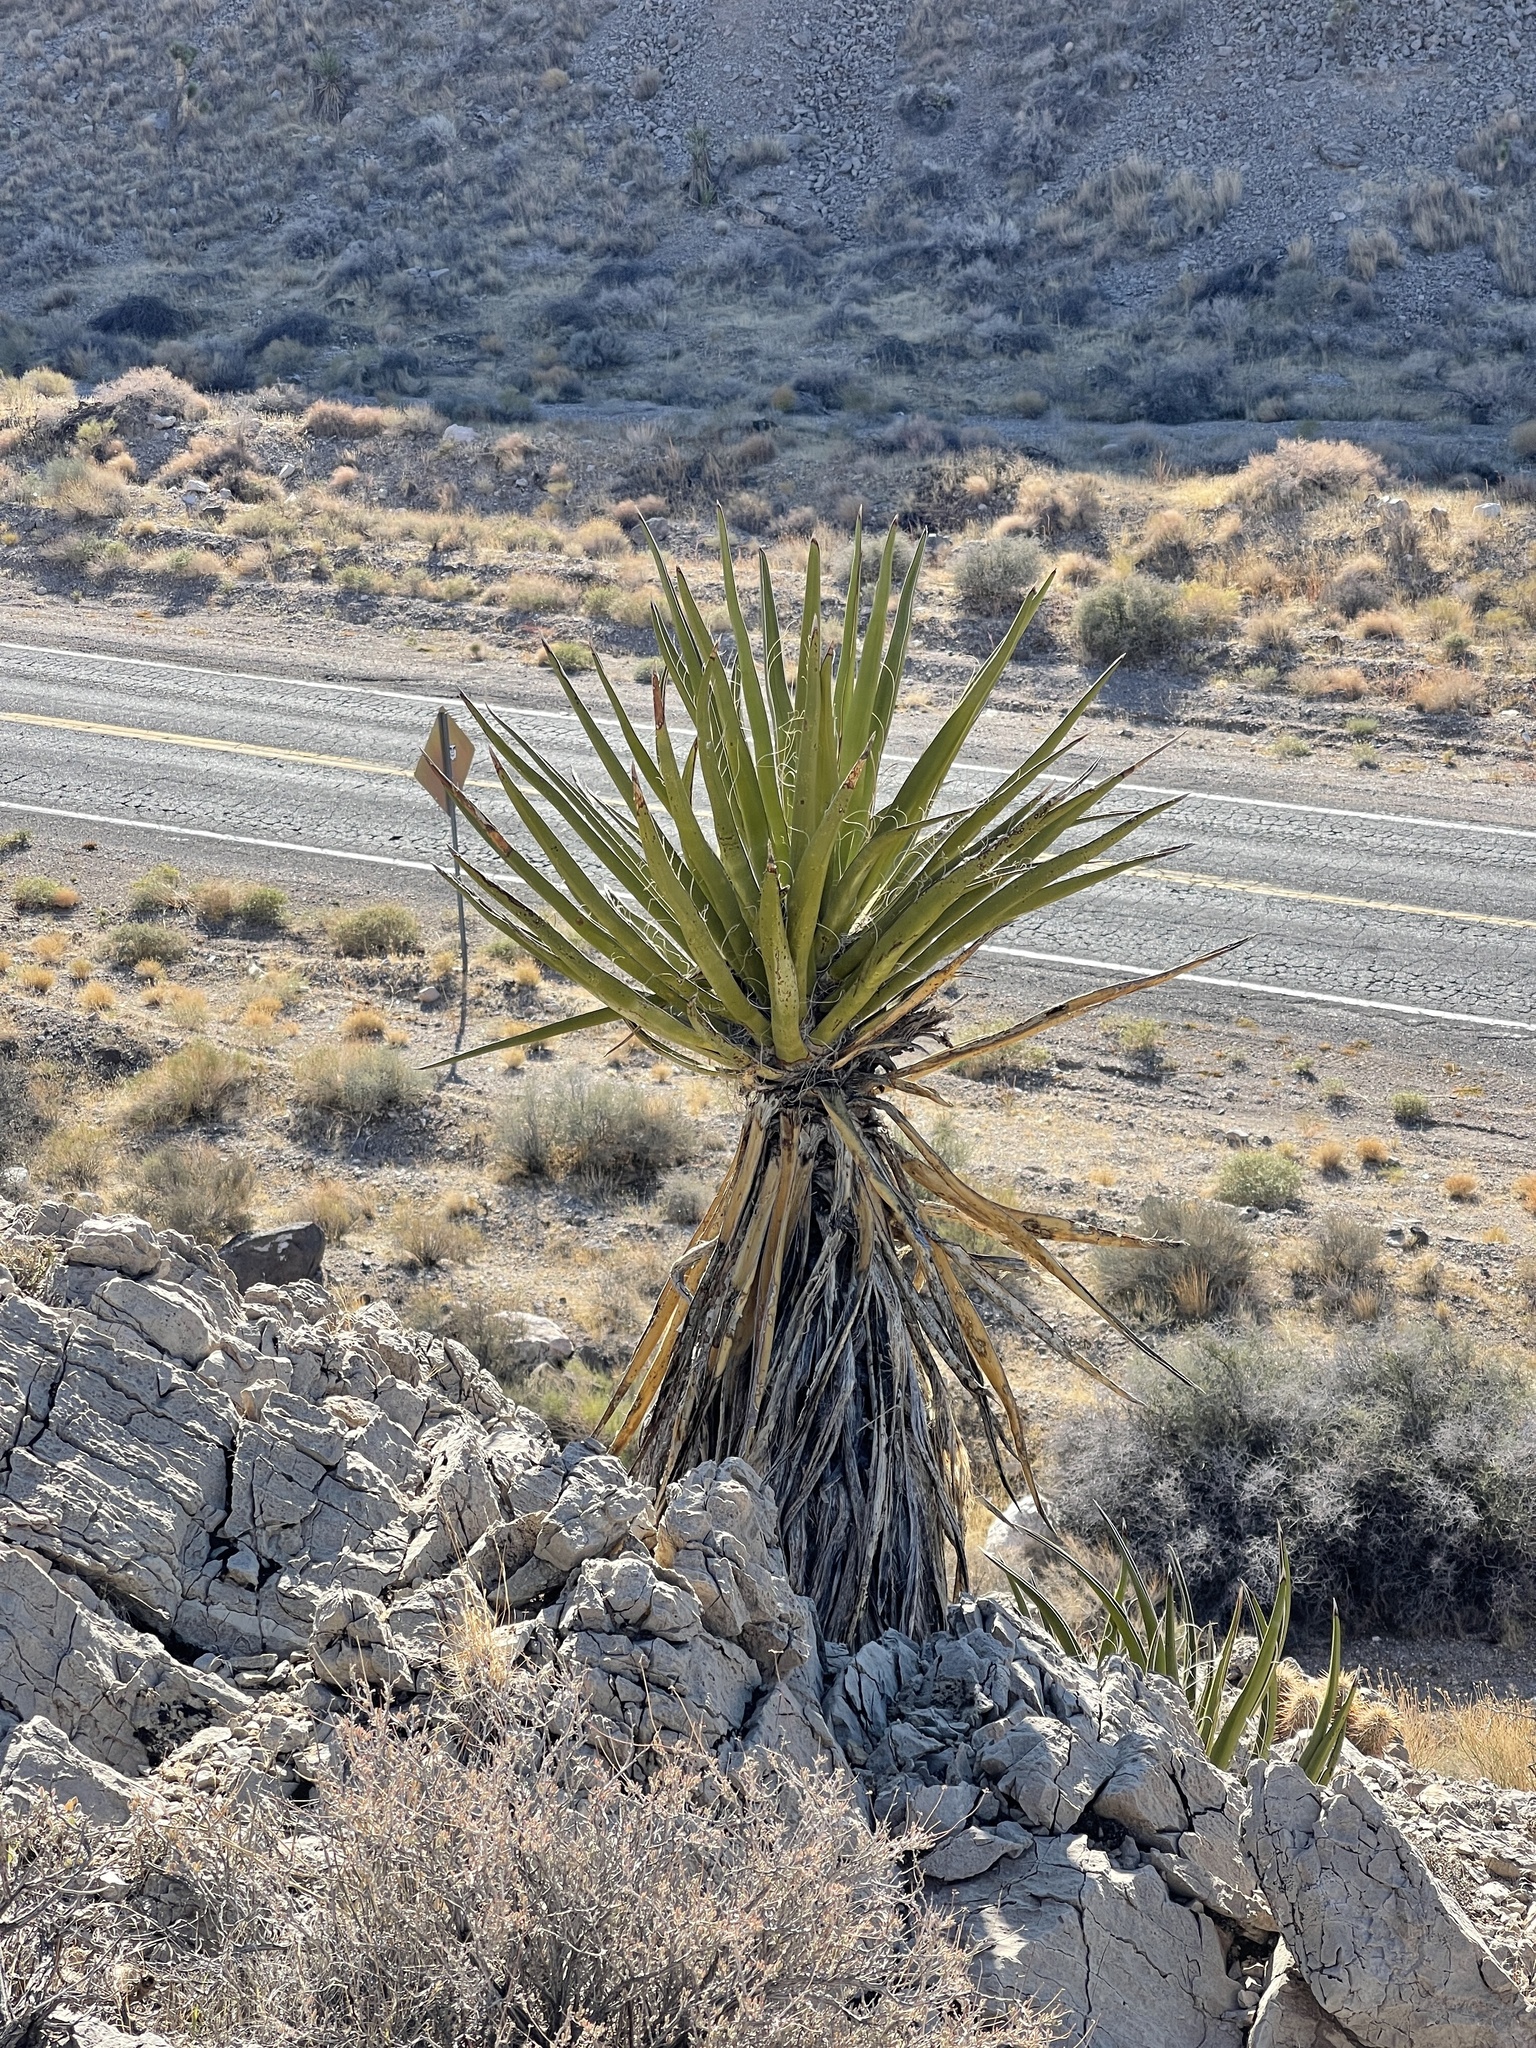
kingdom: Plantae
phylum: Tracheophyta
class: Liliopsida
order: Asparagales
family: Asparagaceae
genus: Yucca
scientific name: Yucca schidigera
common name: Mojave yucca
